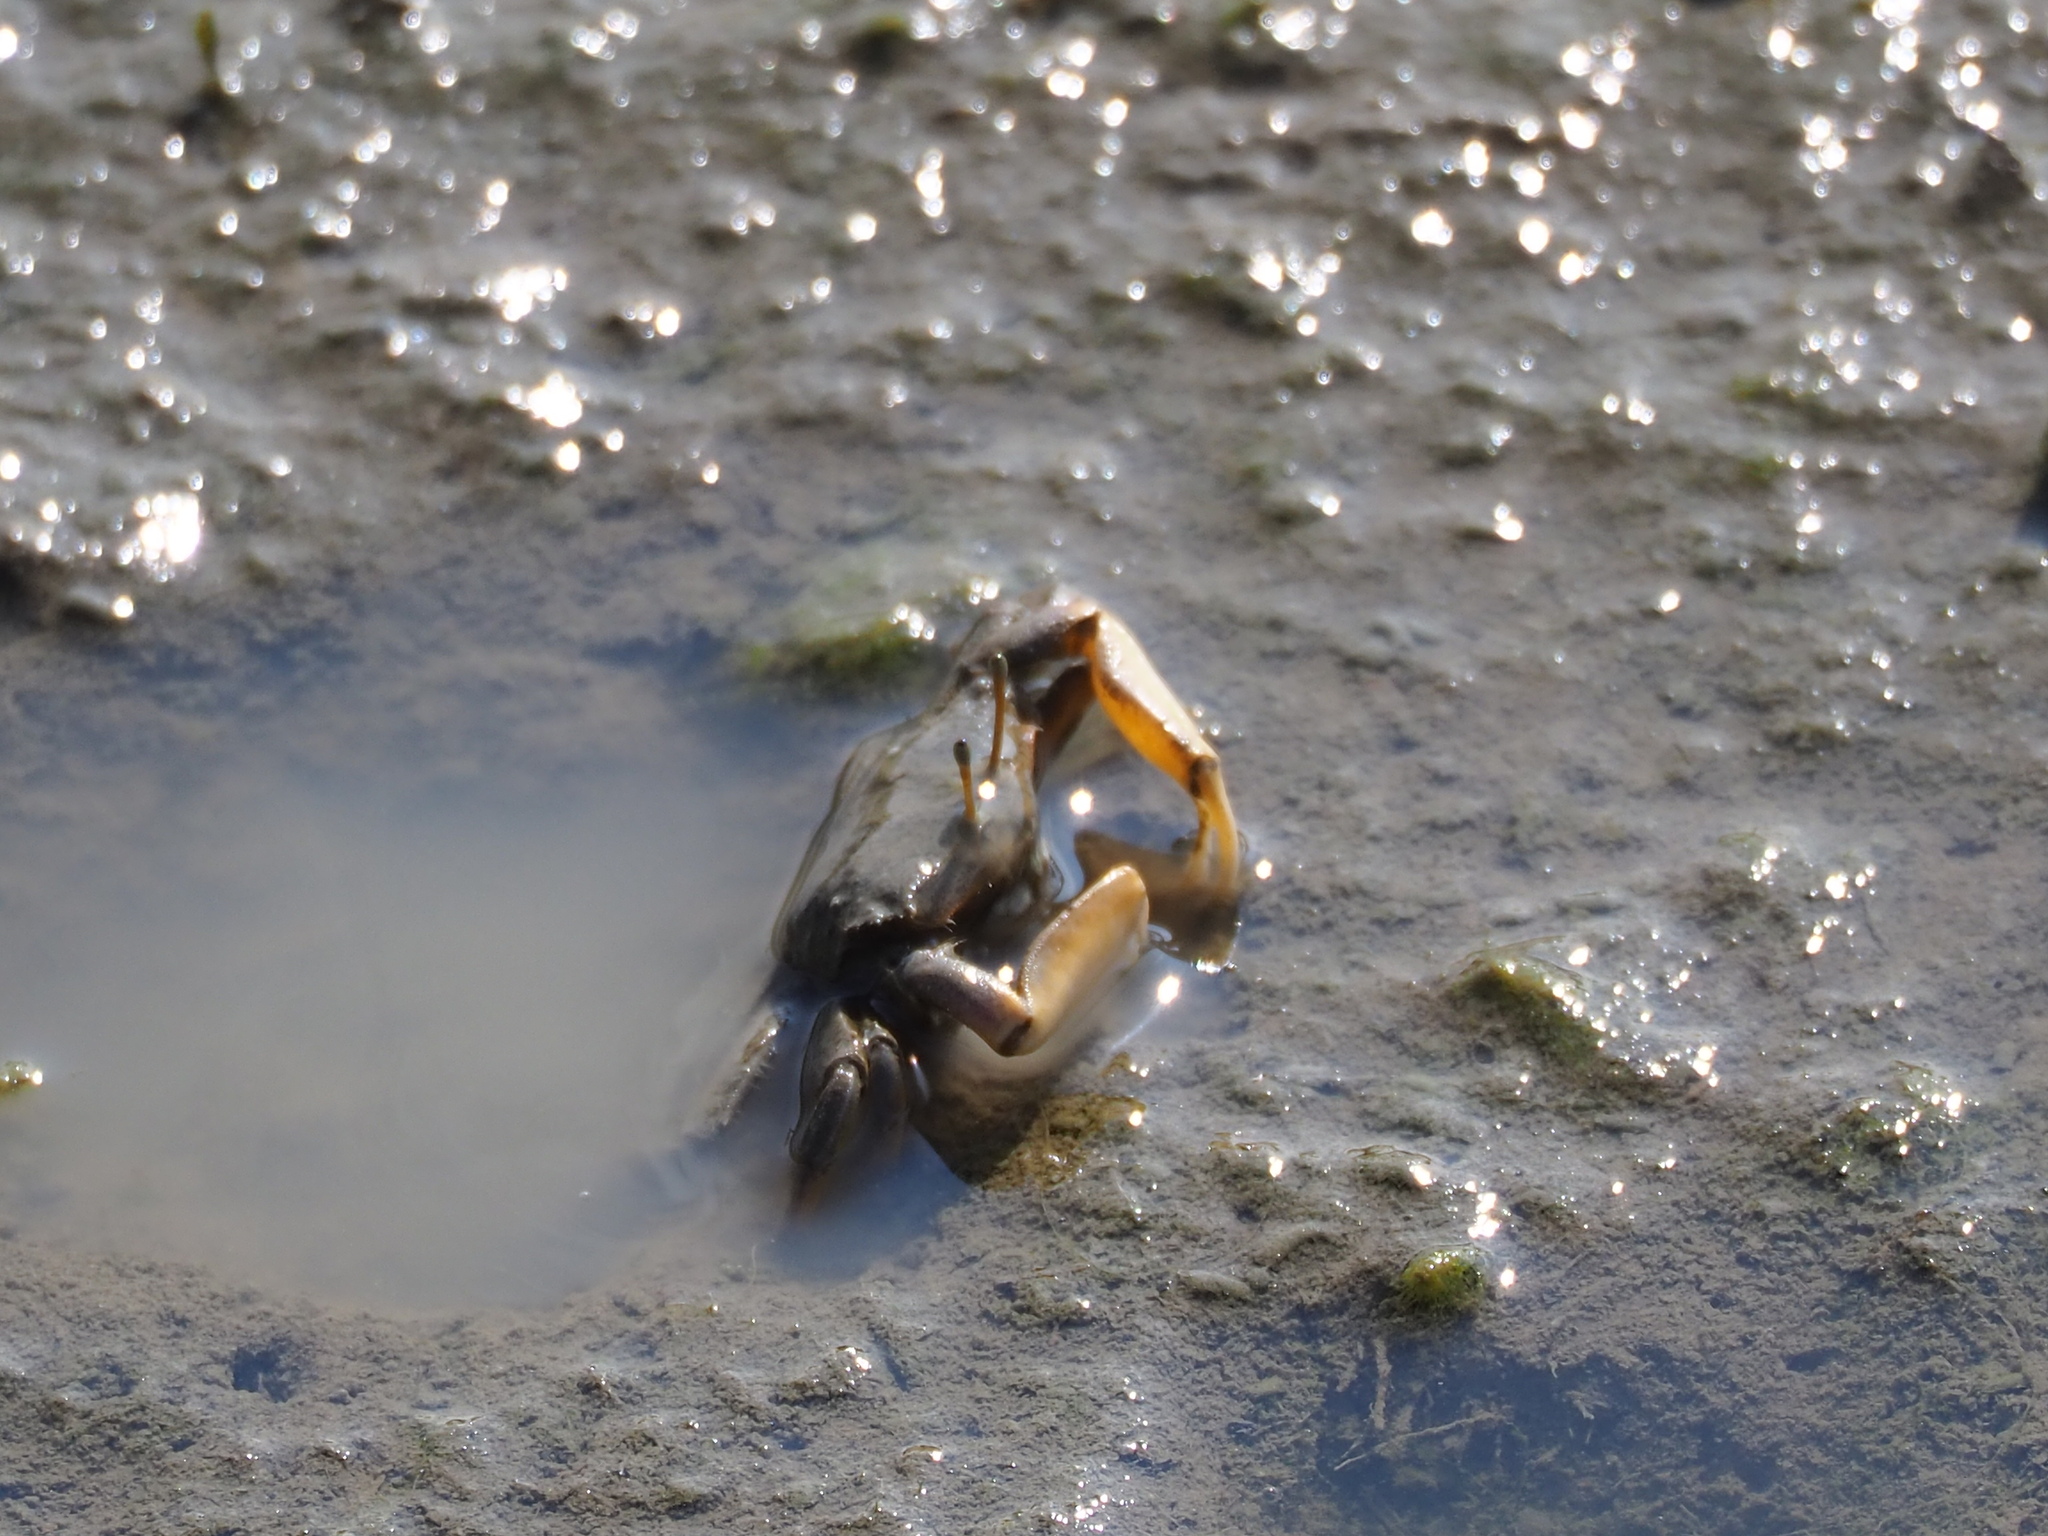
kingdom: Animalia
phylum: Arthropoda
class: Malacostraca
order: Decapoda
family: Macrophthalmidae
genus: Macrophthalmus
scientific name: Macrophthalmus banzai
